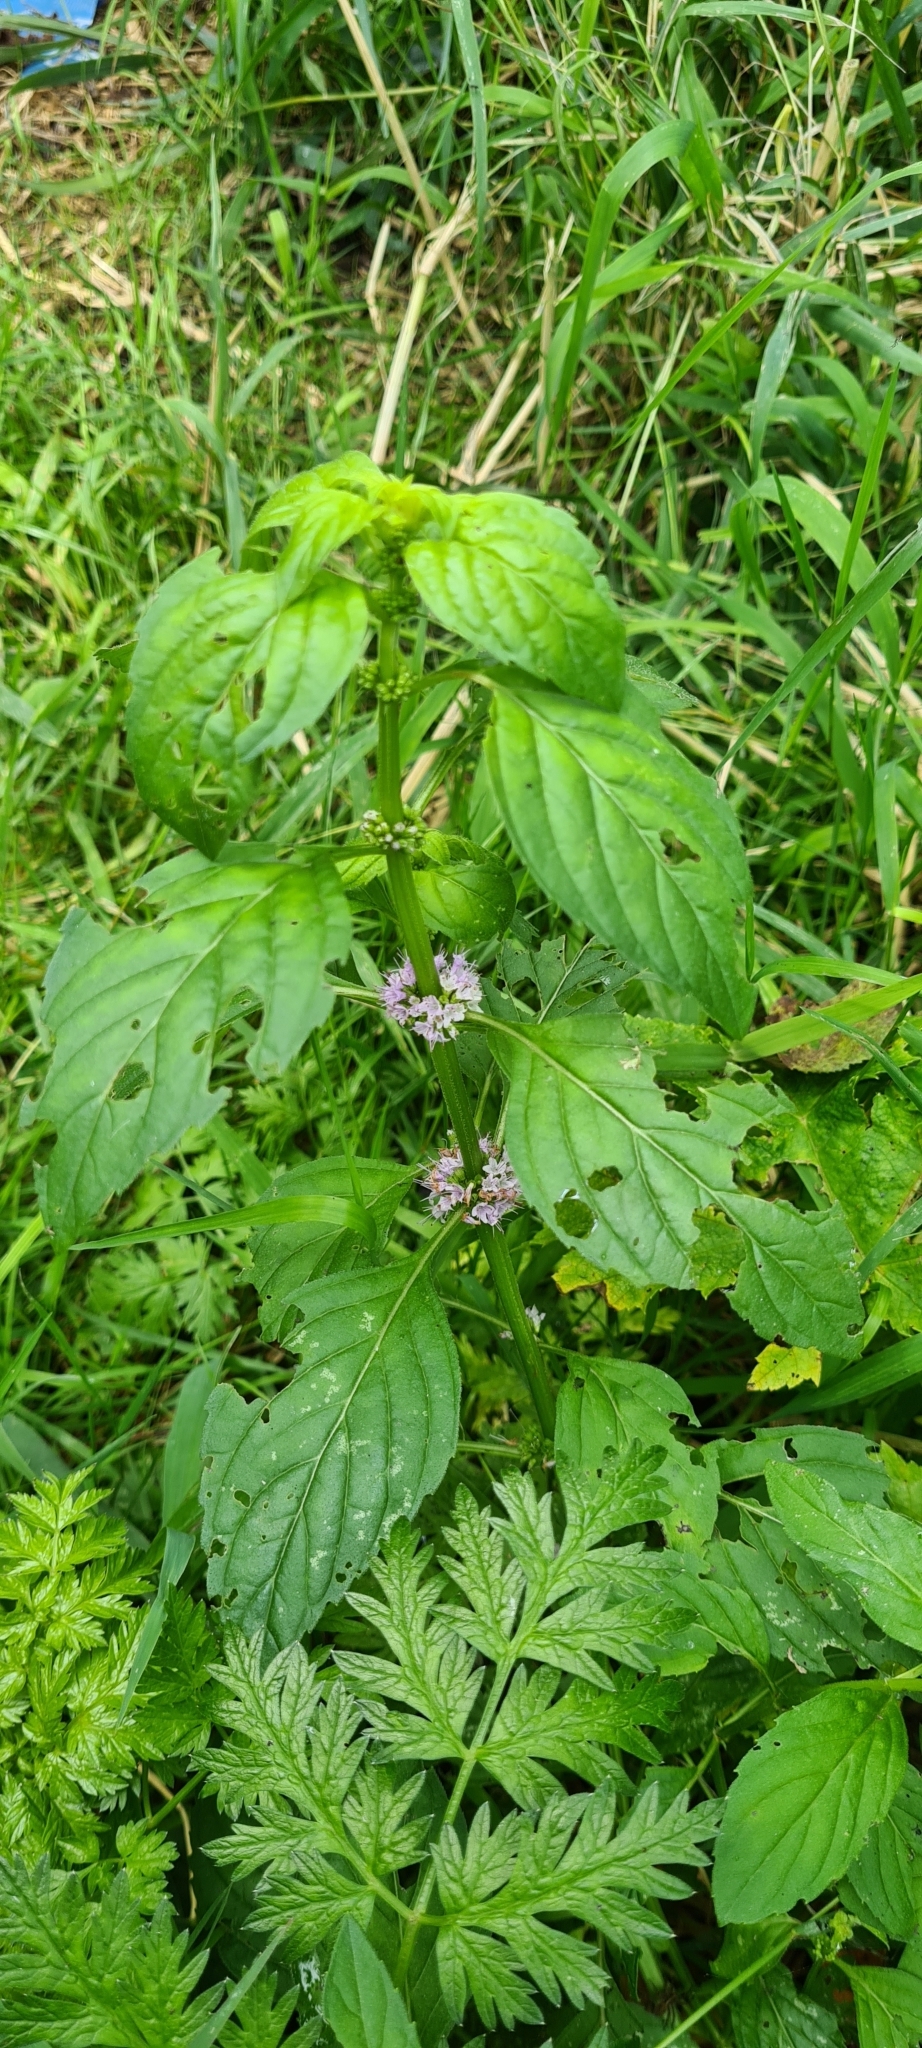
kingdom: Plantae
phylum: Tracheophyta
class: Magnoliopsida
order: Lamiales
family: Lamiaceae
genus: Mentha
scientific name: Mentha arvensis
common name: Corn mint
